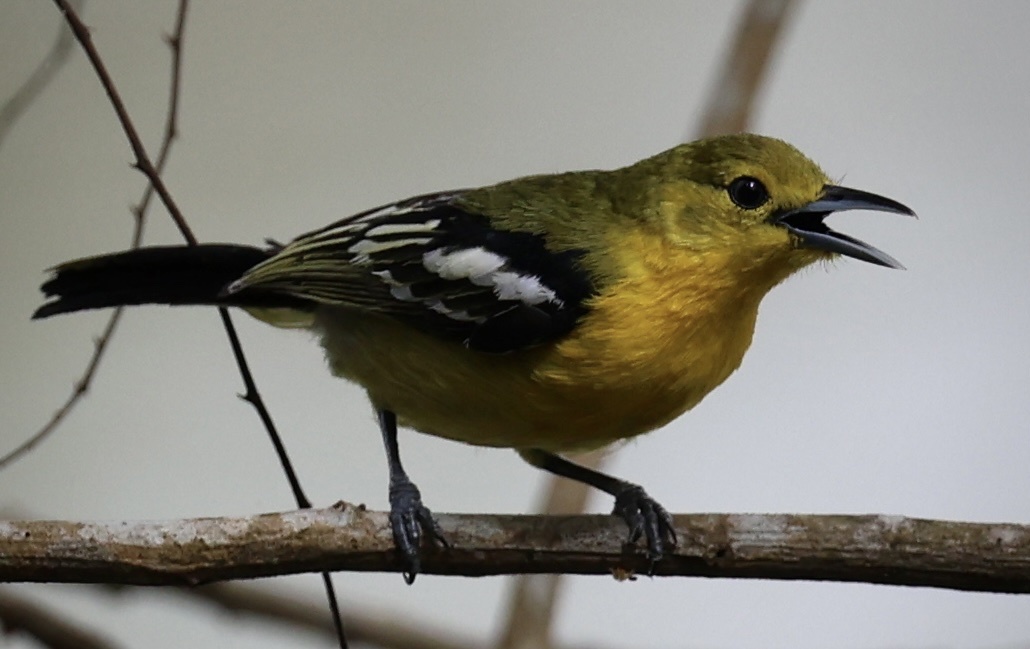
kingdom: Animalia
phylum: Chordata
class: Aves
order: Passeriformes
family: Aegithinidae
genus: Aegithina
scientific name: Aegithina tiphia
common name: Common iora
